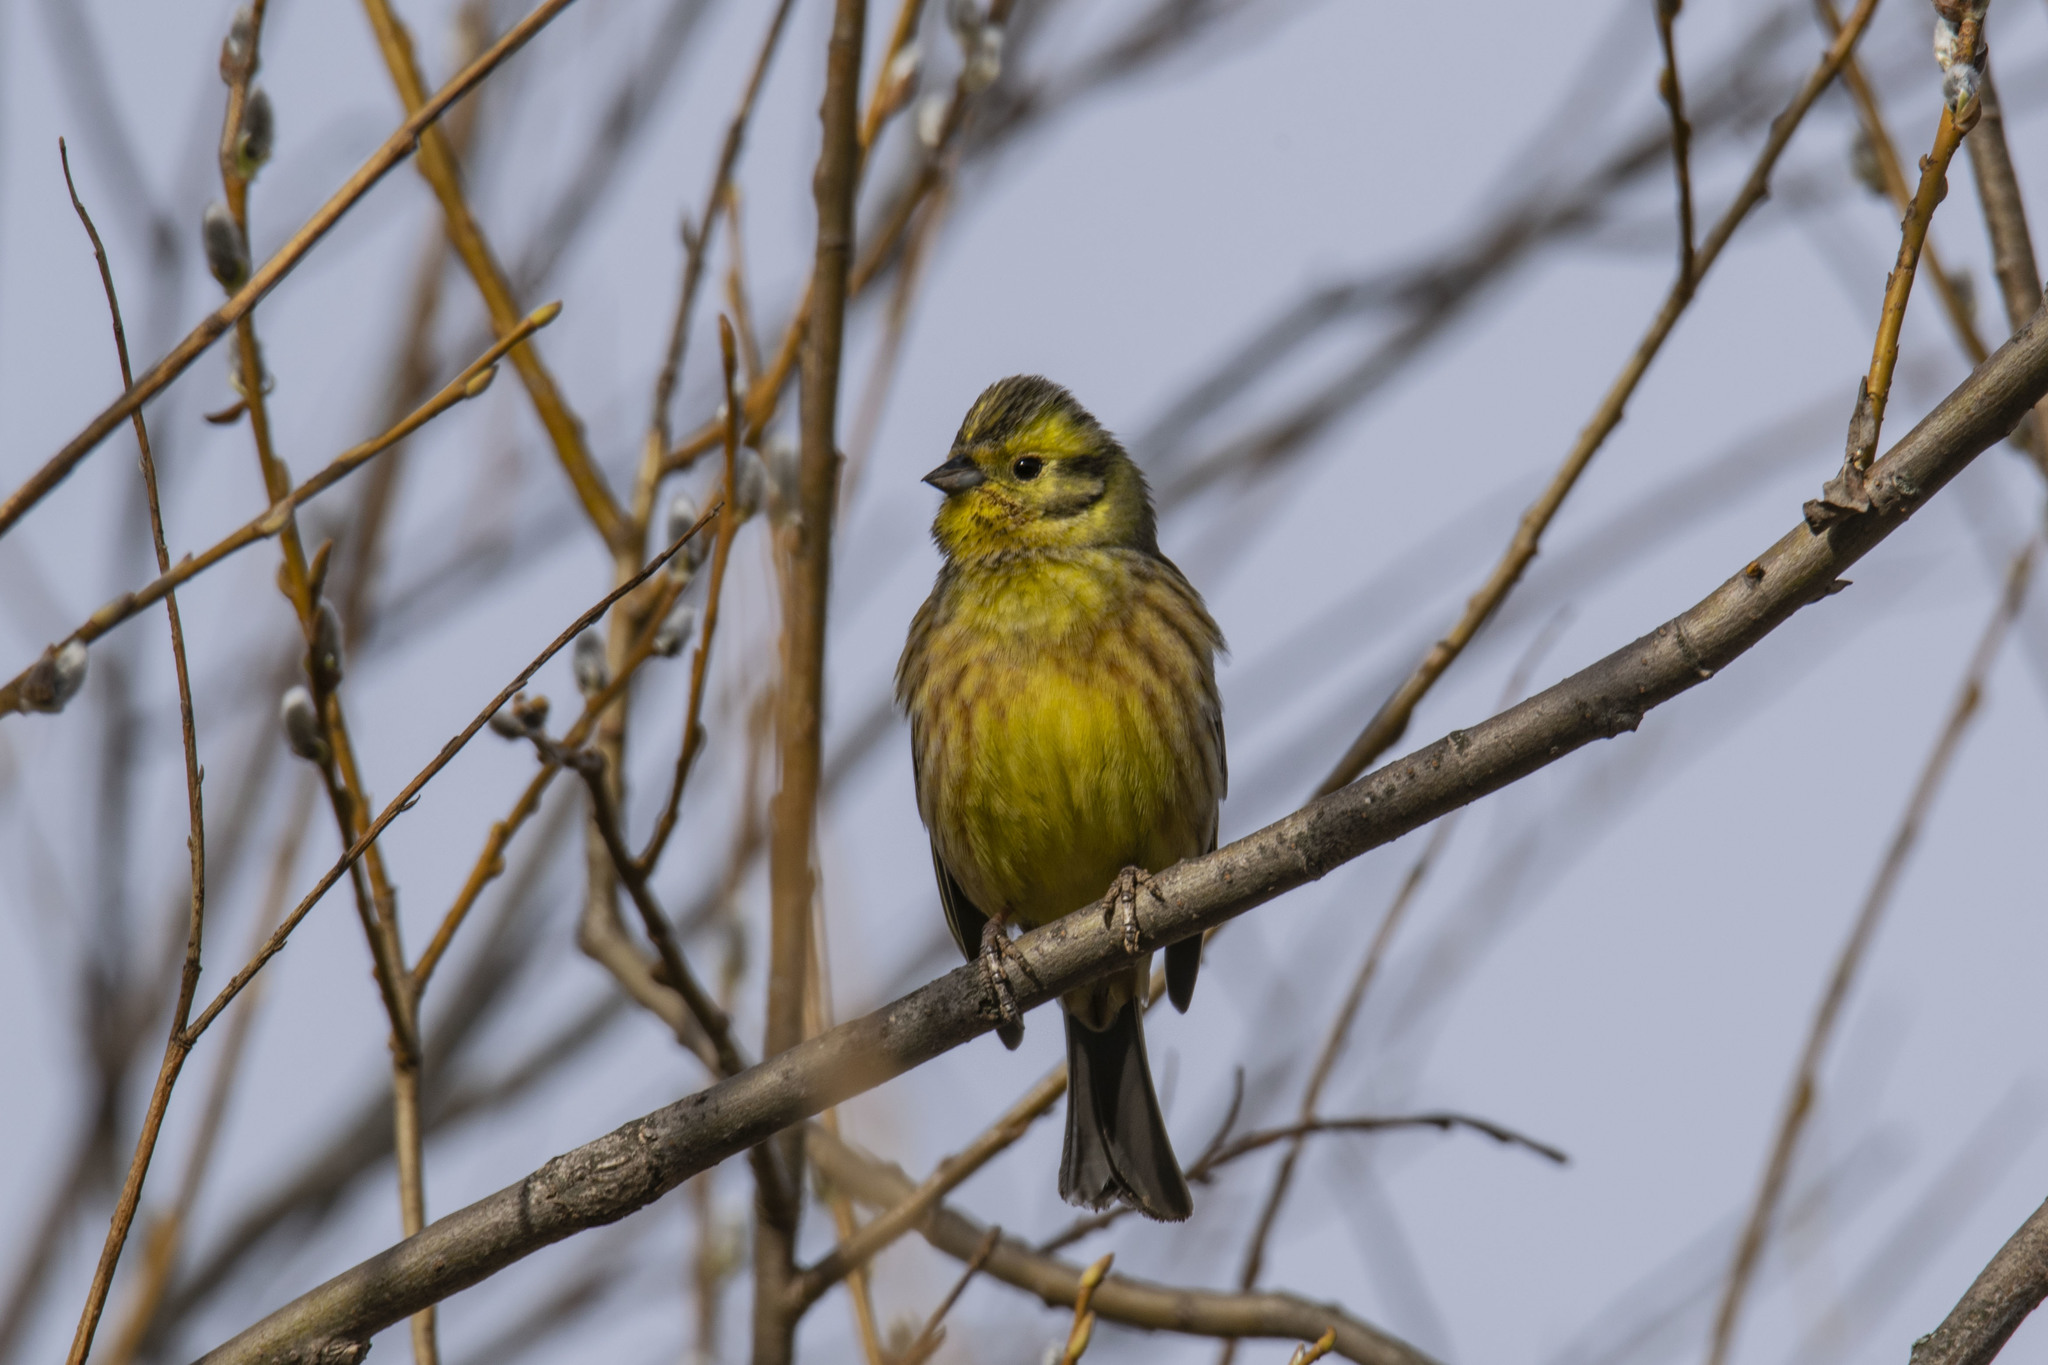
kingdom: Animalia
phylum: Chordata
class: Aves
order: Passeriformes
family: Emberizidae
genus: Emberiza
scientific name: Emberiza citrinella
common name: Yellowhammer
